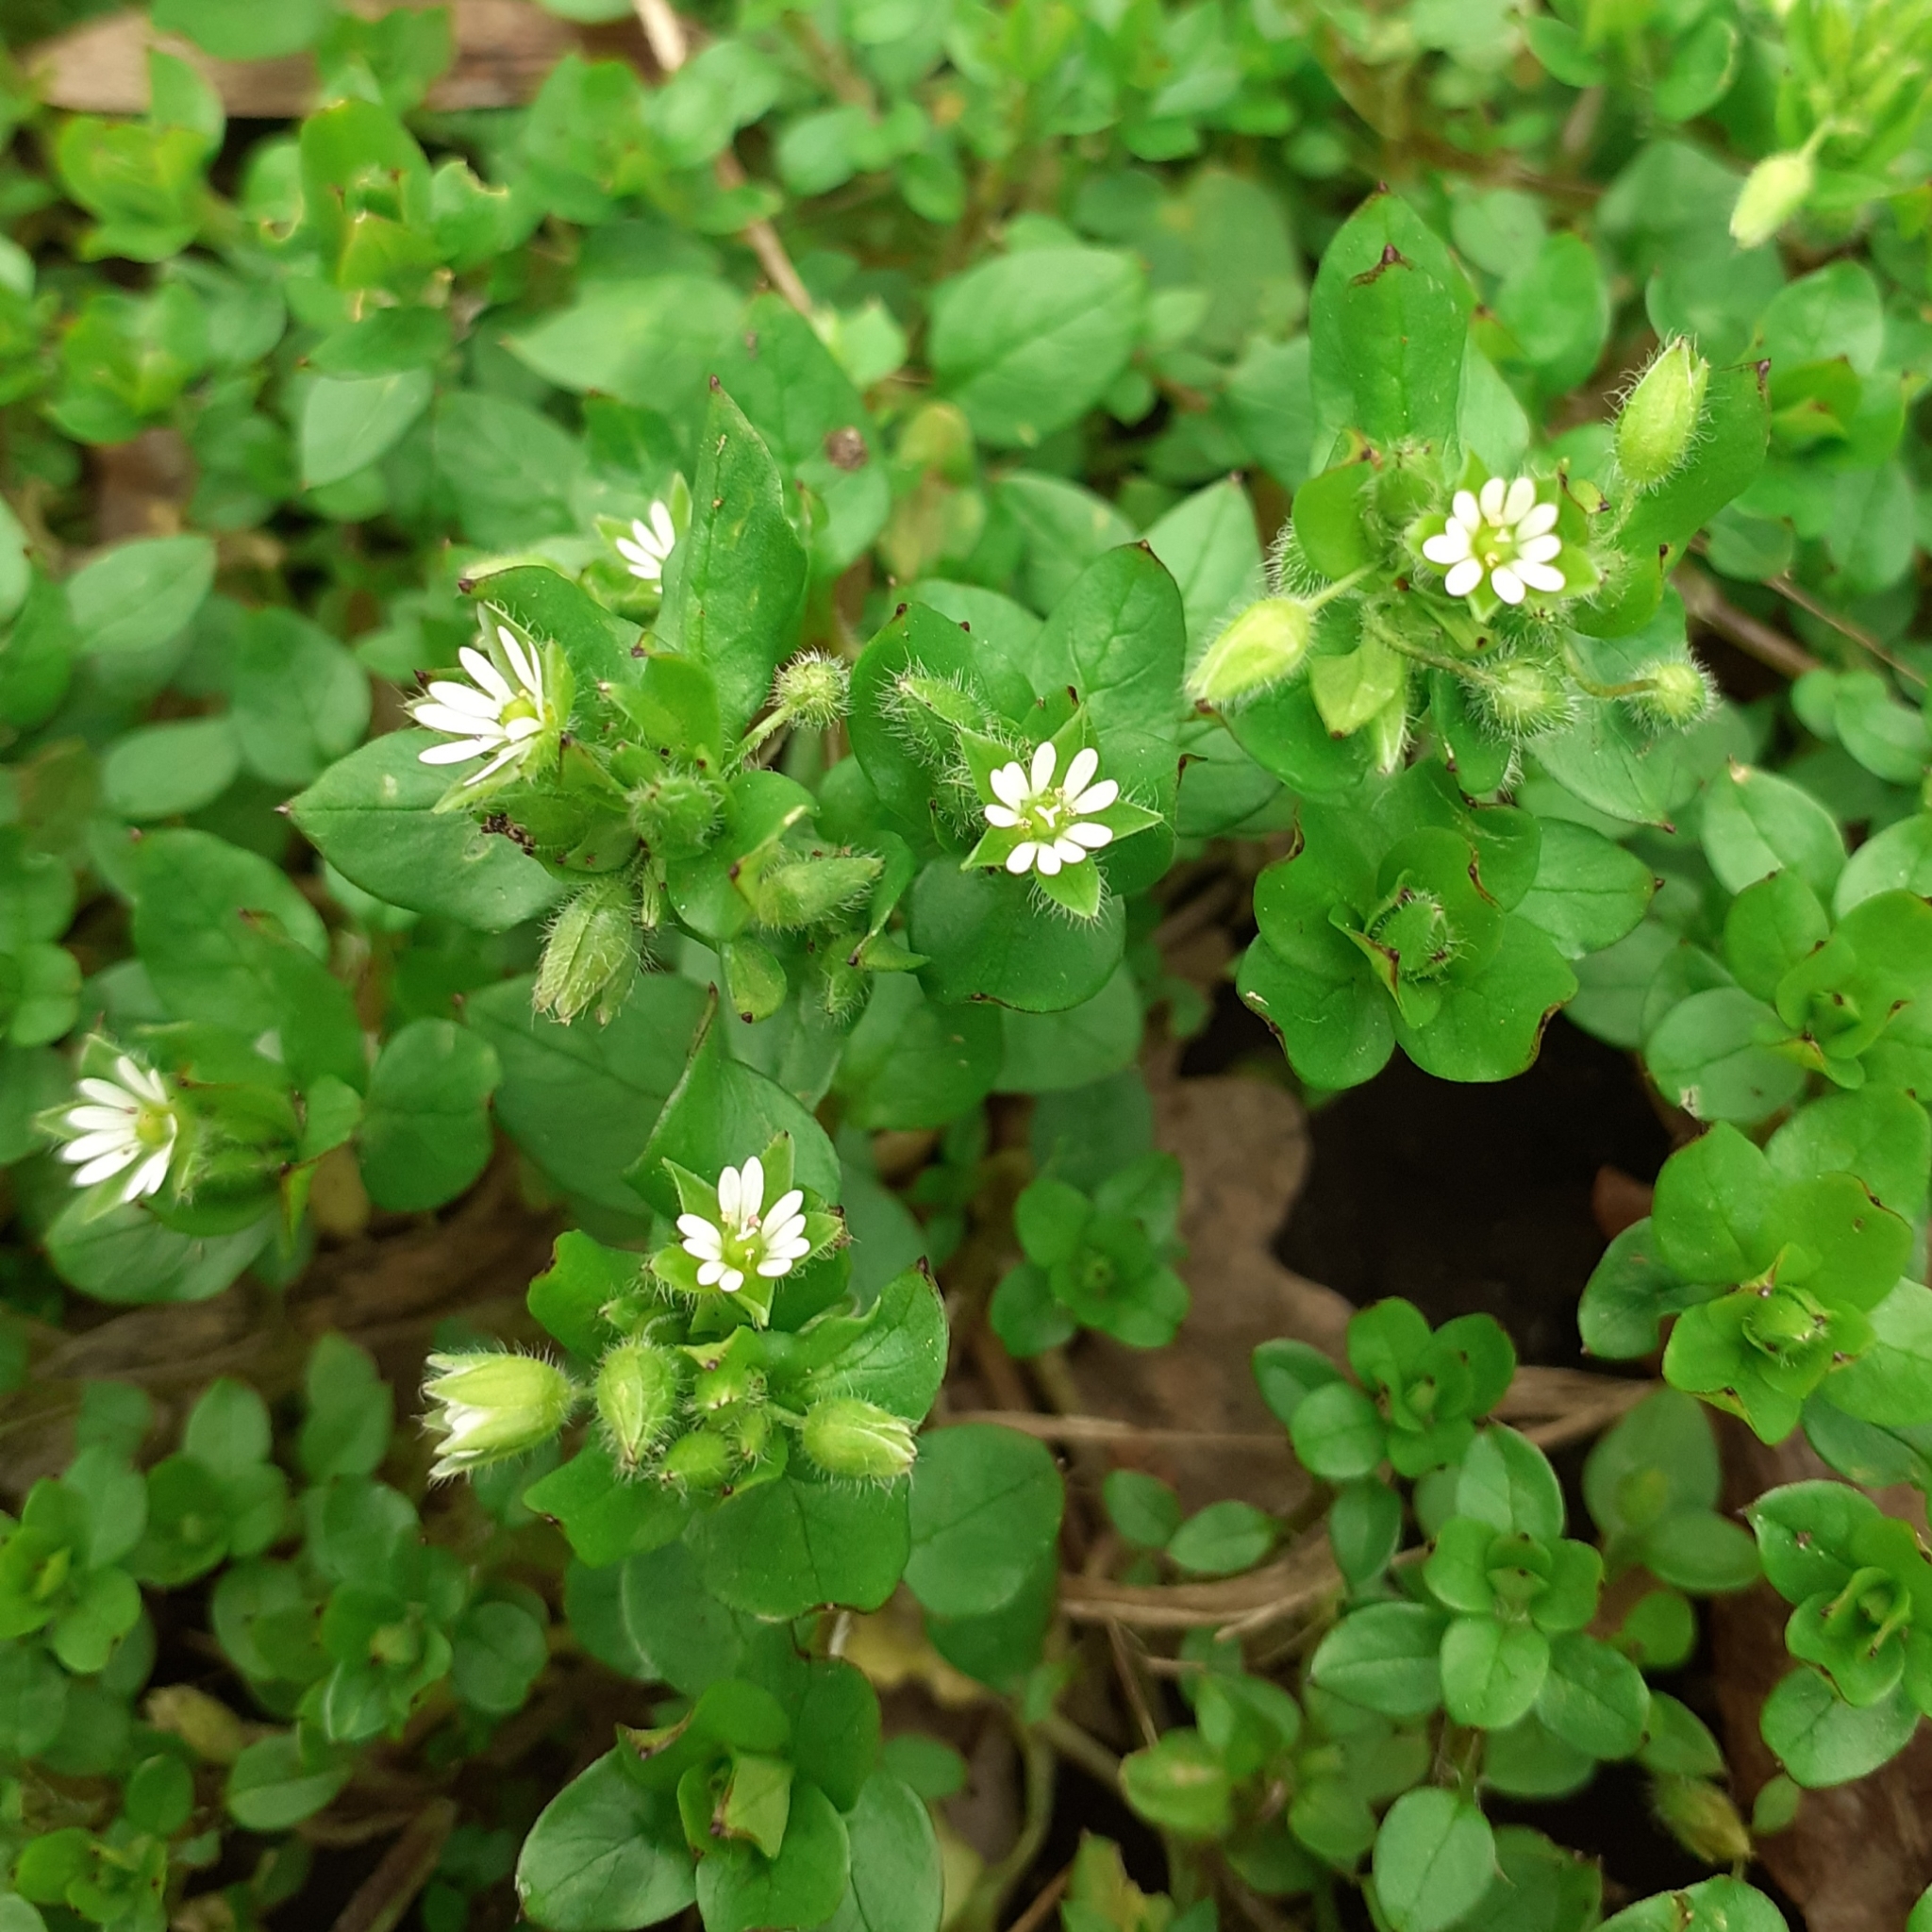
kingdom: Plantae
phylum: Tracheophyta
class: Magnoliopsida
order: Caryophyllales
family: Caryophyllaceae
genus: Stellaria
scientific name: Stellaria media
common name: Common chickweed
